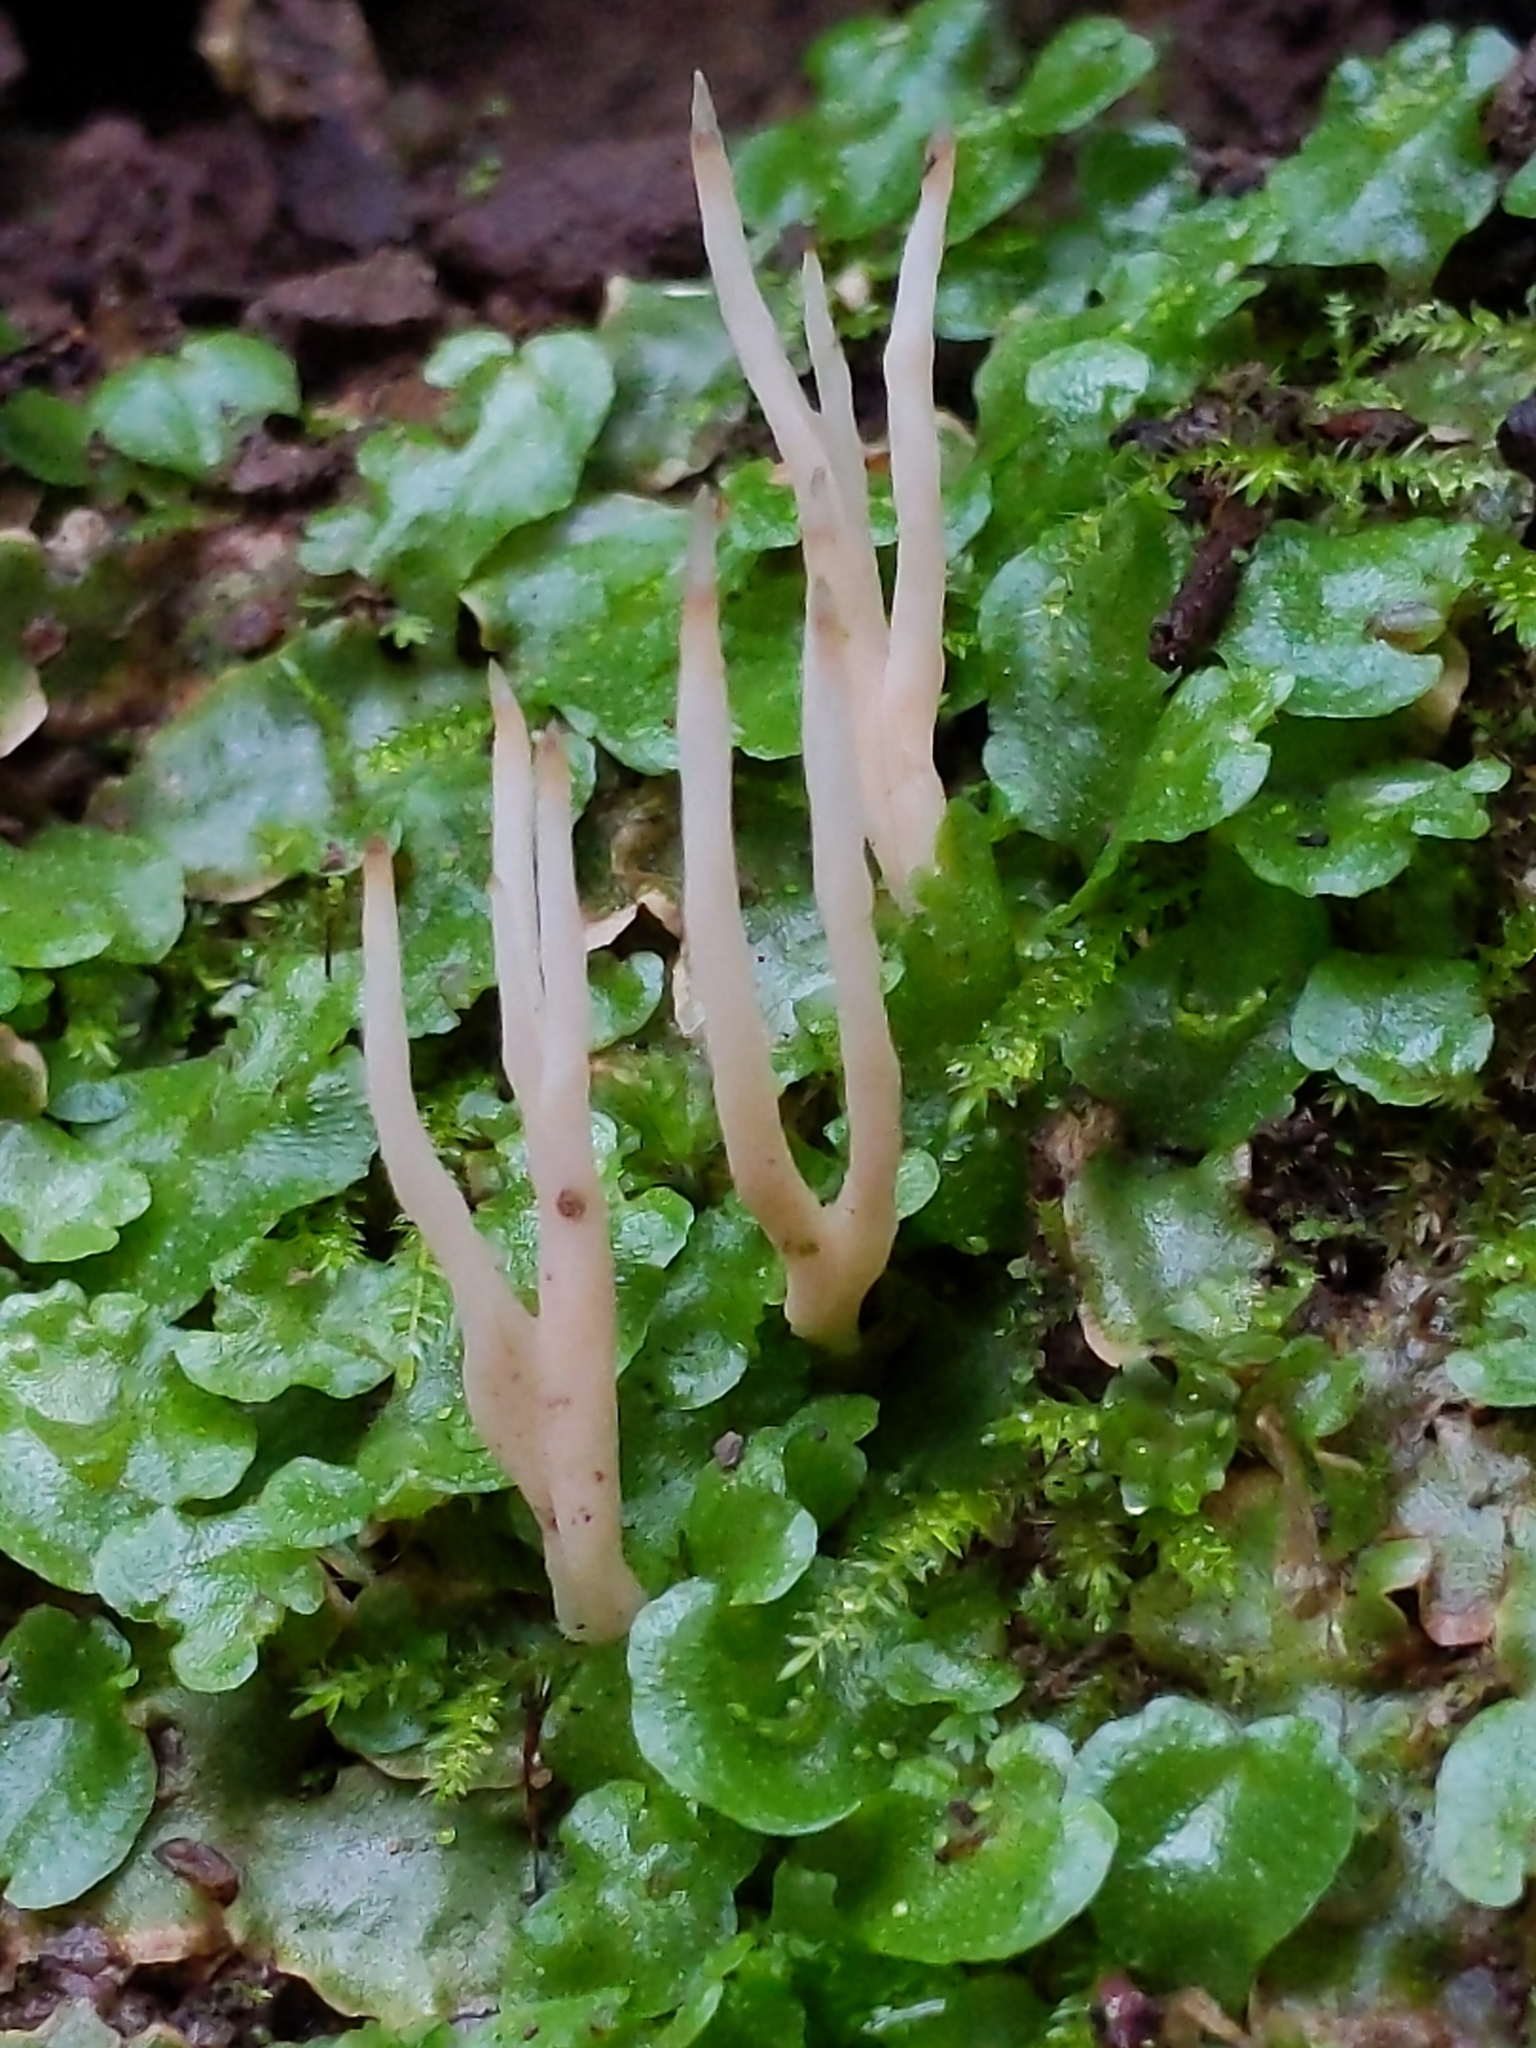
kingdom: Fungi
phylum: Basidiomycota
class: Agaricomycetes
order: Tremellodendropsidales
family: Tremellodendropsidaceae
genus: Tremellodendropsis
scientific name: Tremellodendropsis tuberosa
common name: Ashen coral
